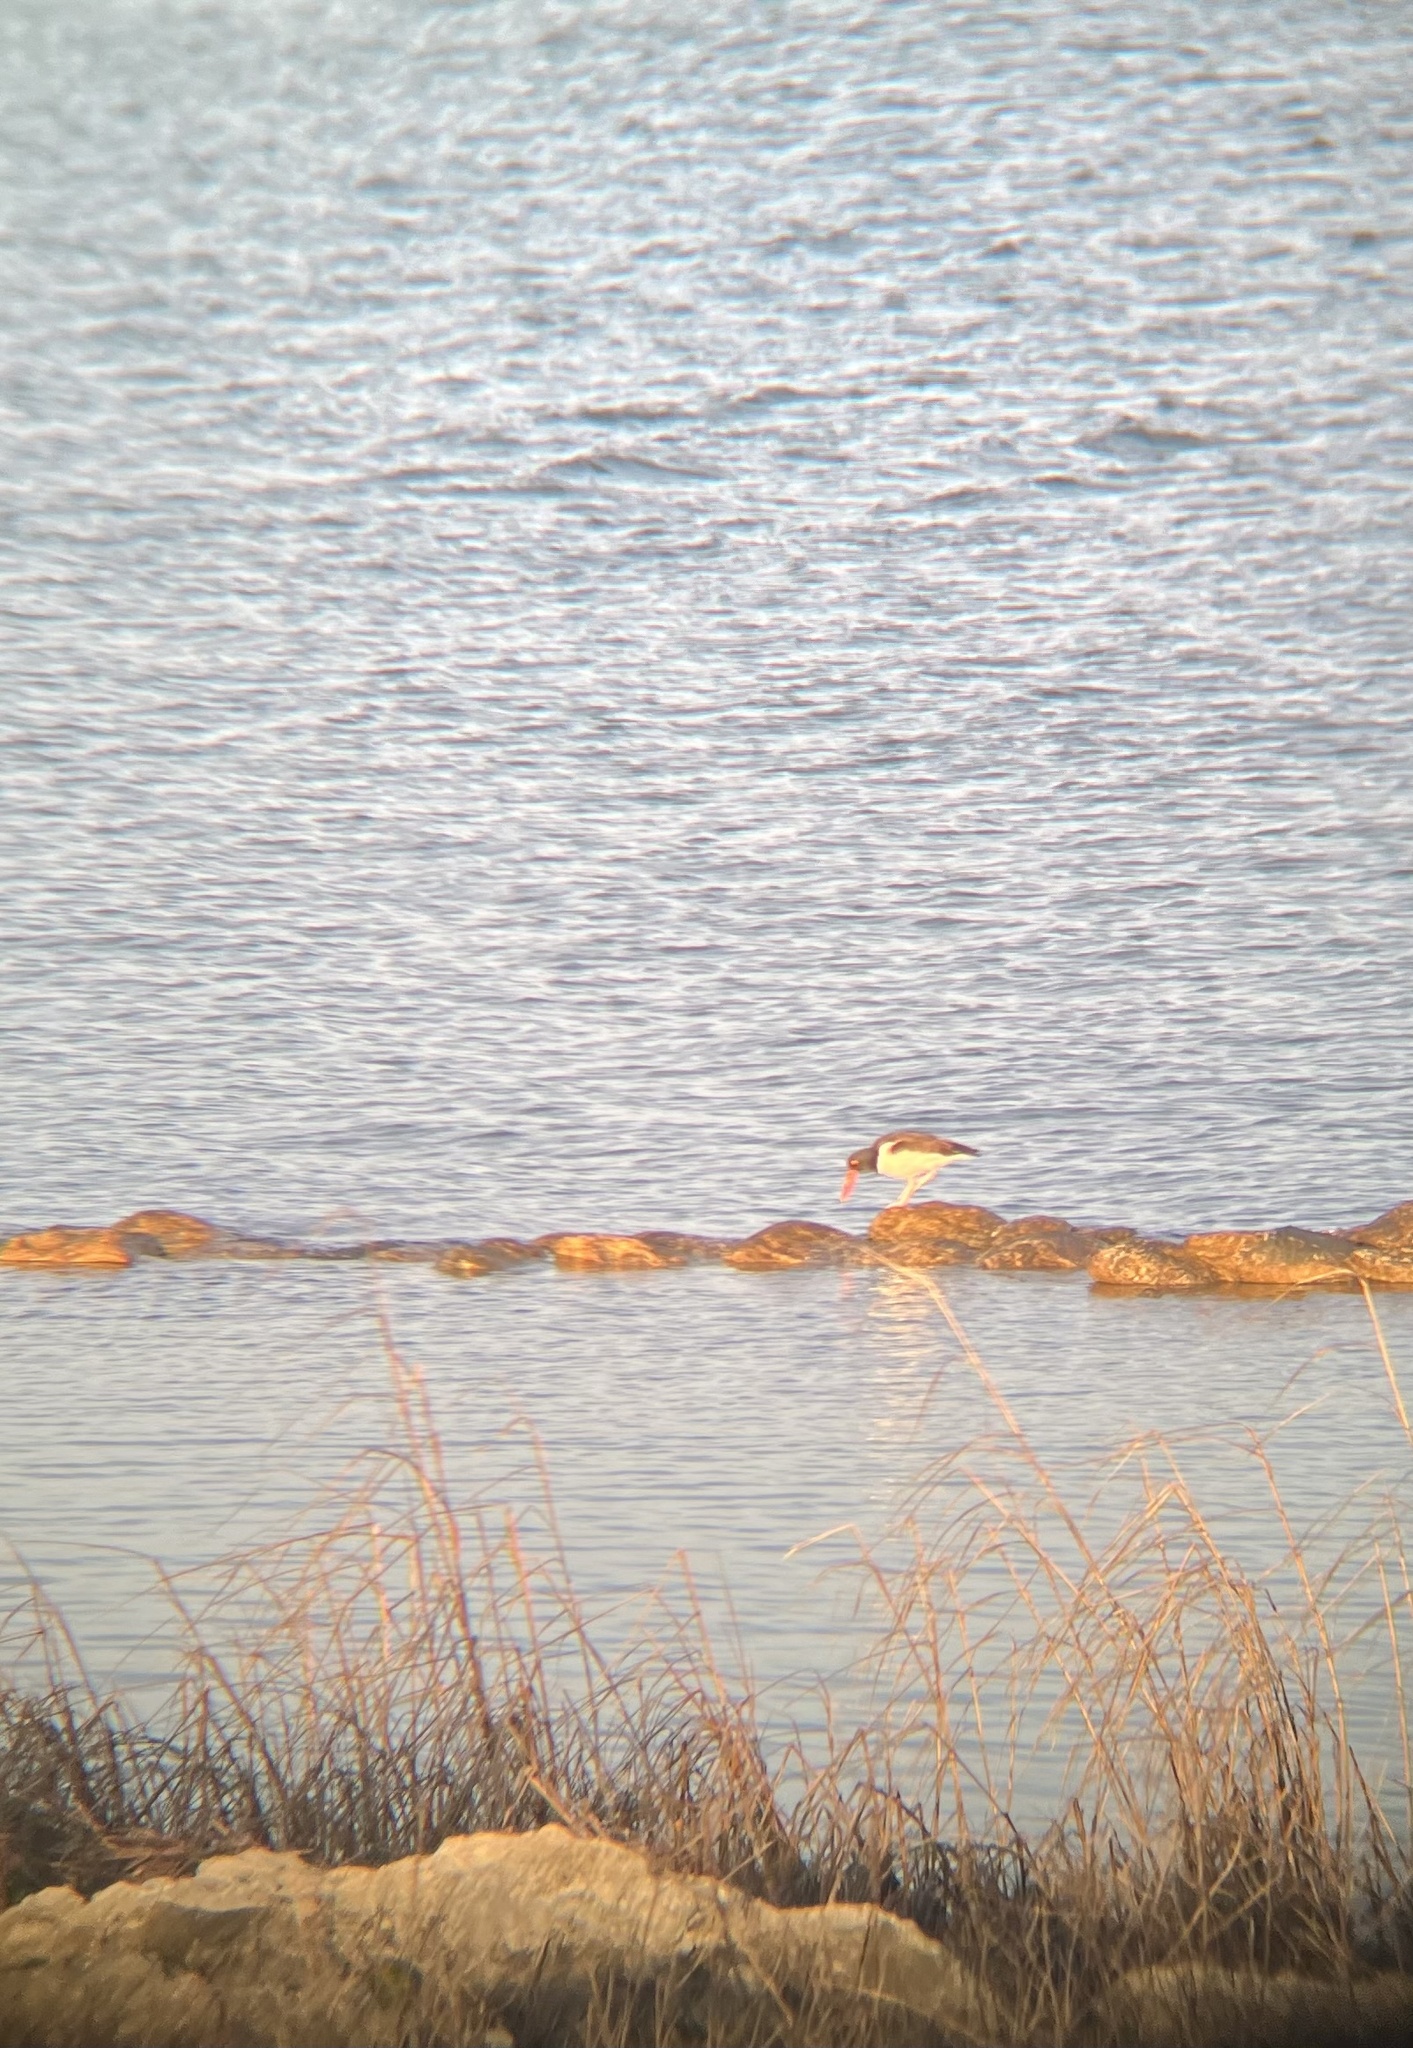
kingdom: Animalia
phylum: Chordata
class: Aves
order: Charadriiformes
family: Haematopodidae
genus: Haematopus
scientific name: Haematopus palliatus
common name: American oystercatcher
